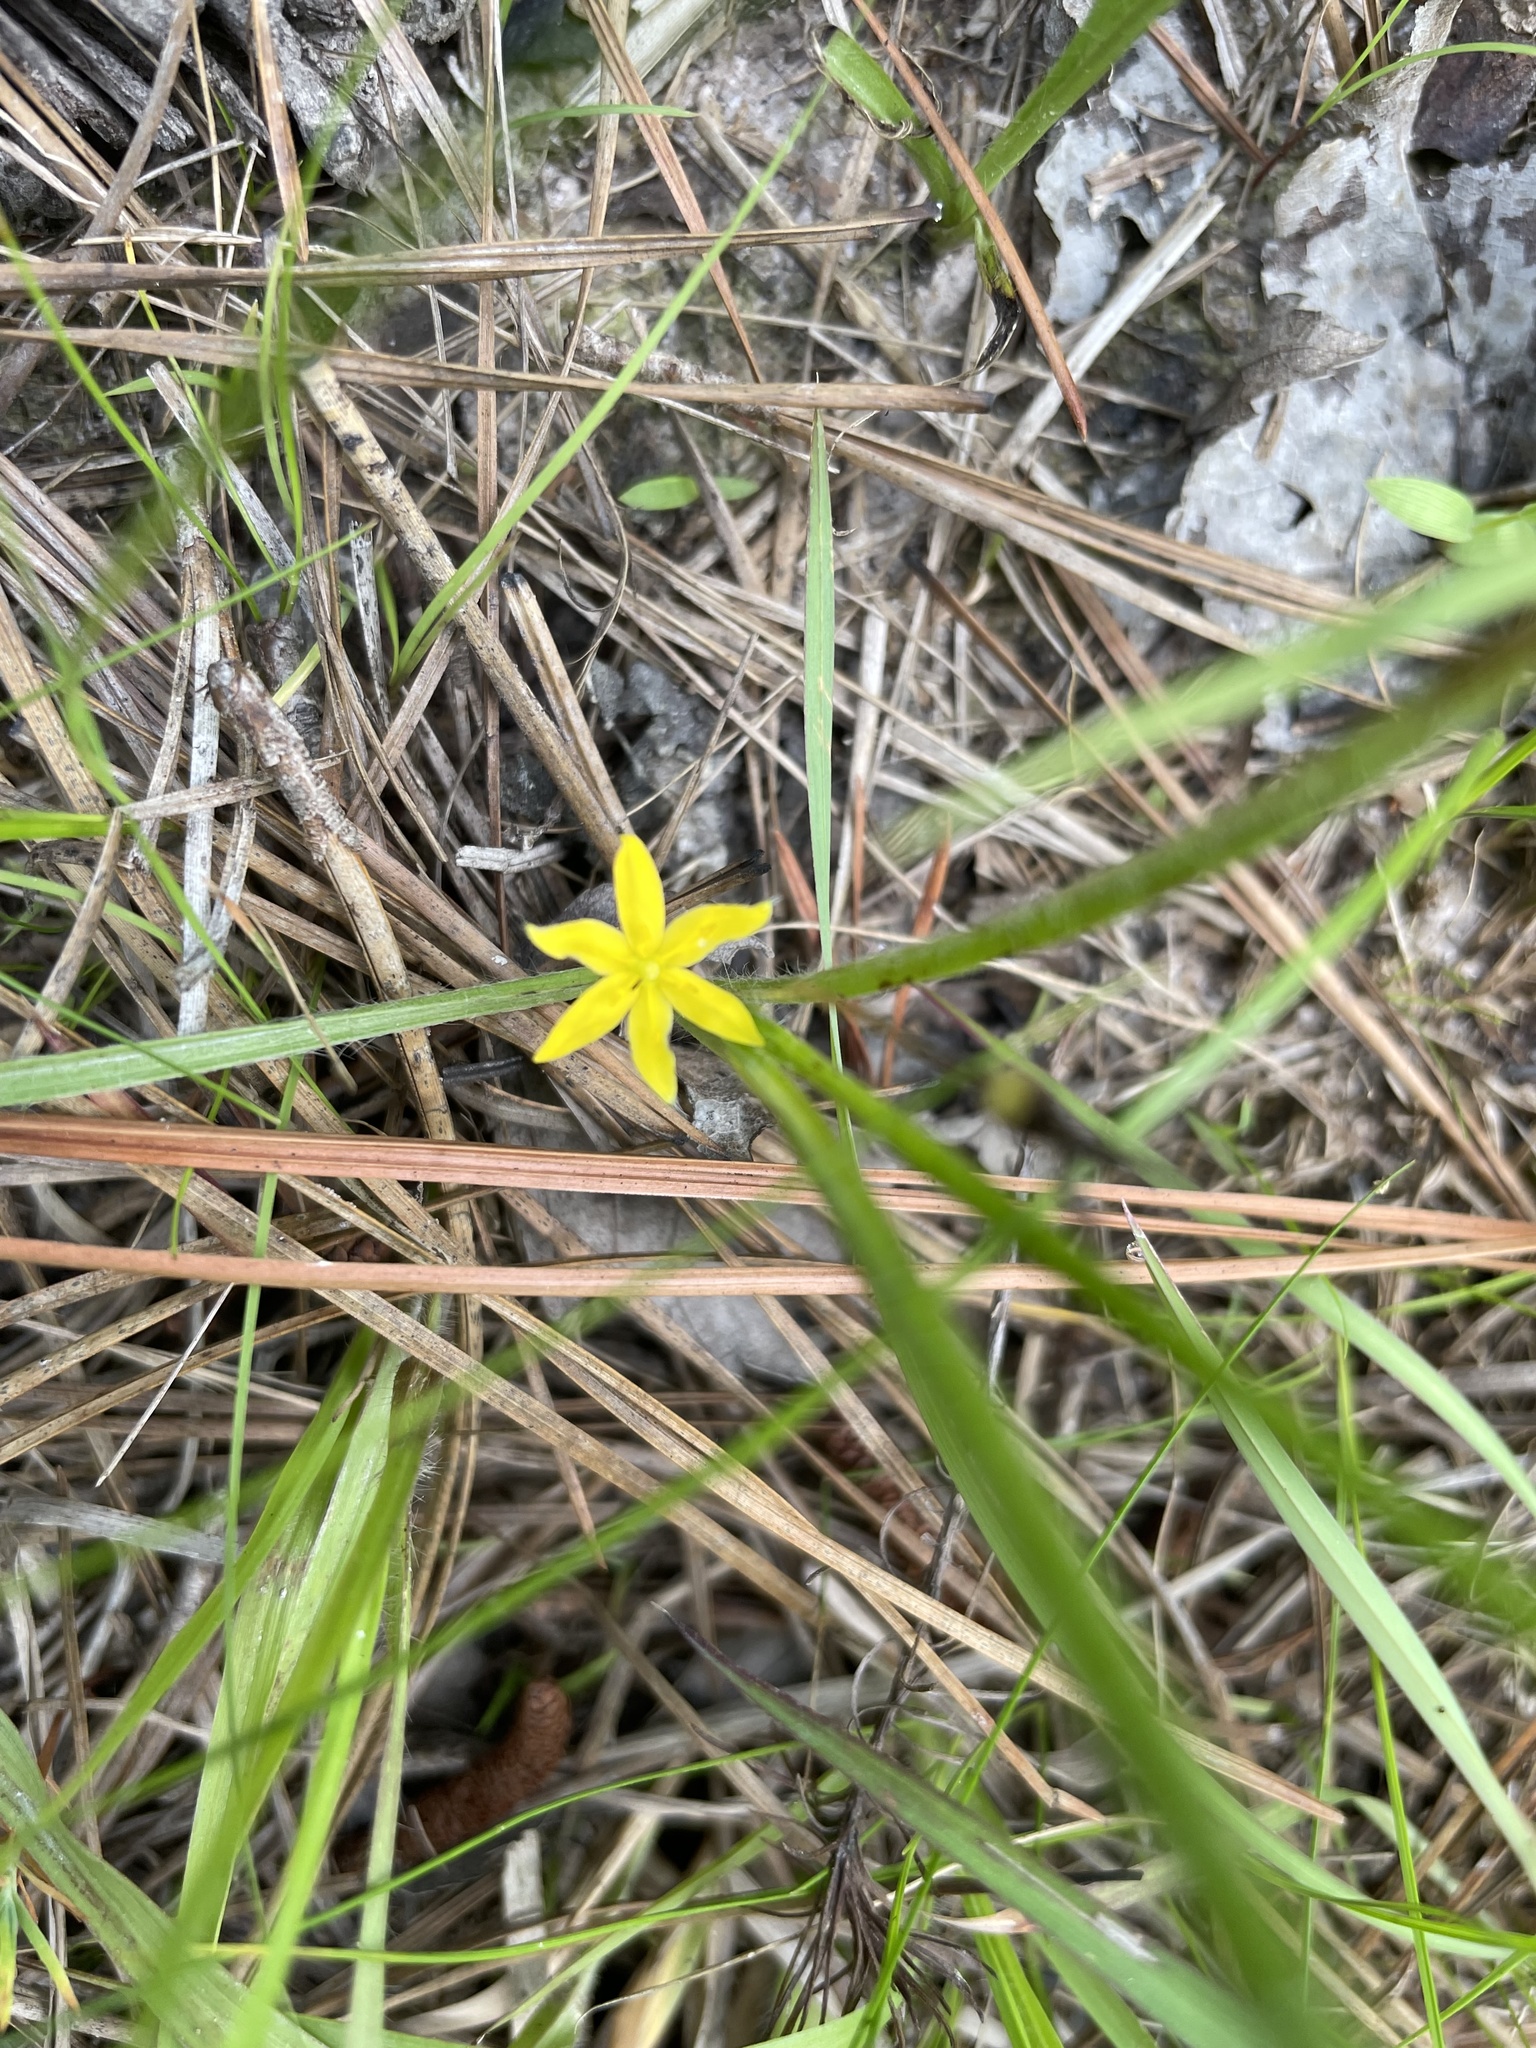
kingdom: Plantae
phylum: Tracheophyta
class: Liliopsida
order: Asparagales
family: Hypoxidaceae
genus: Hypoxis
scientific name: Hypoxis hirsuta
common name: Common goldstar
